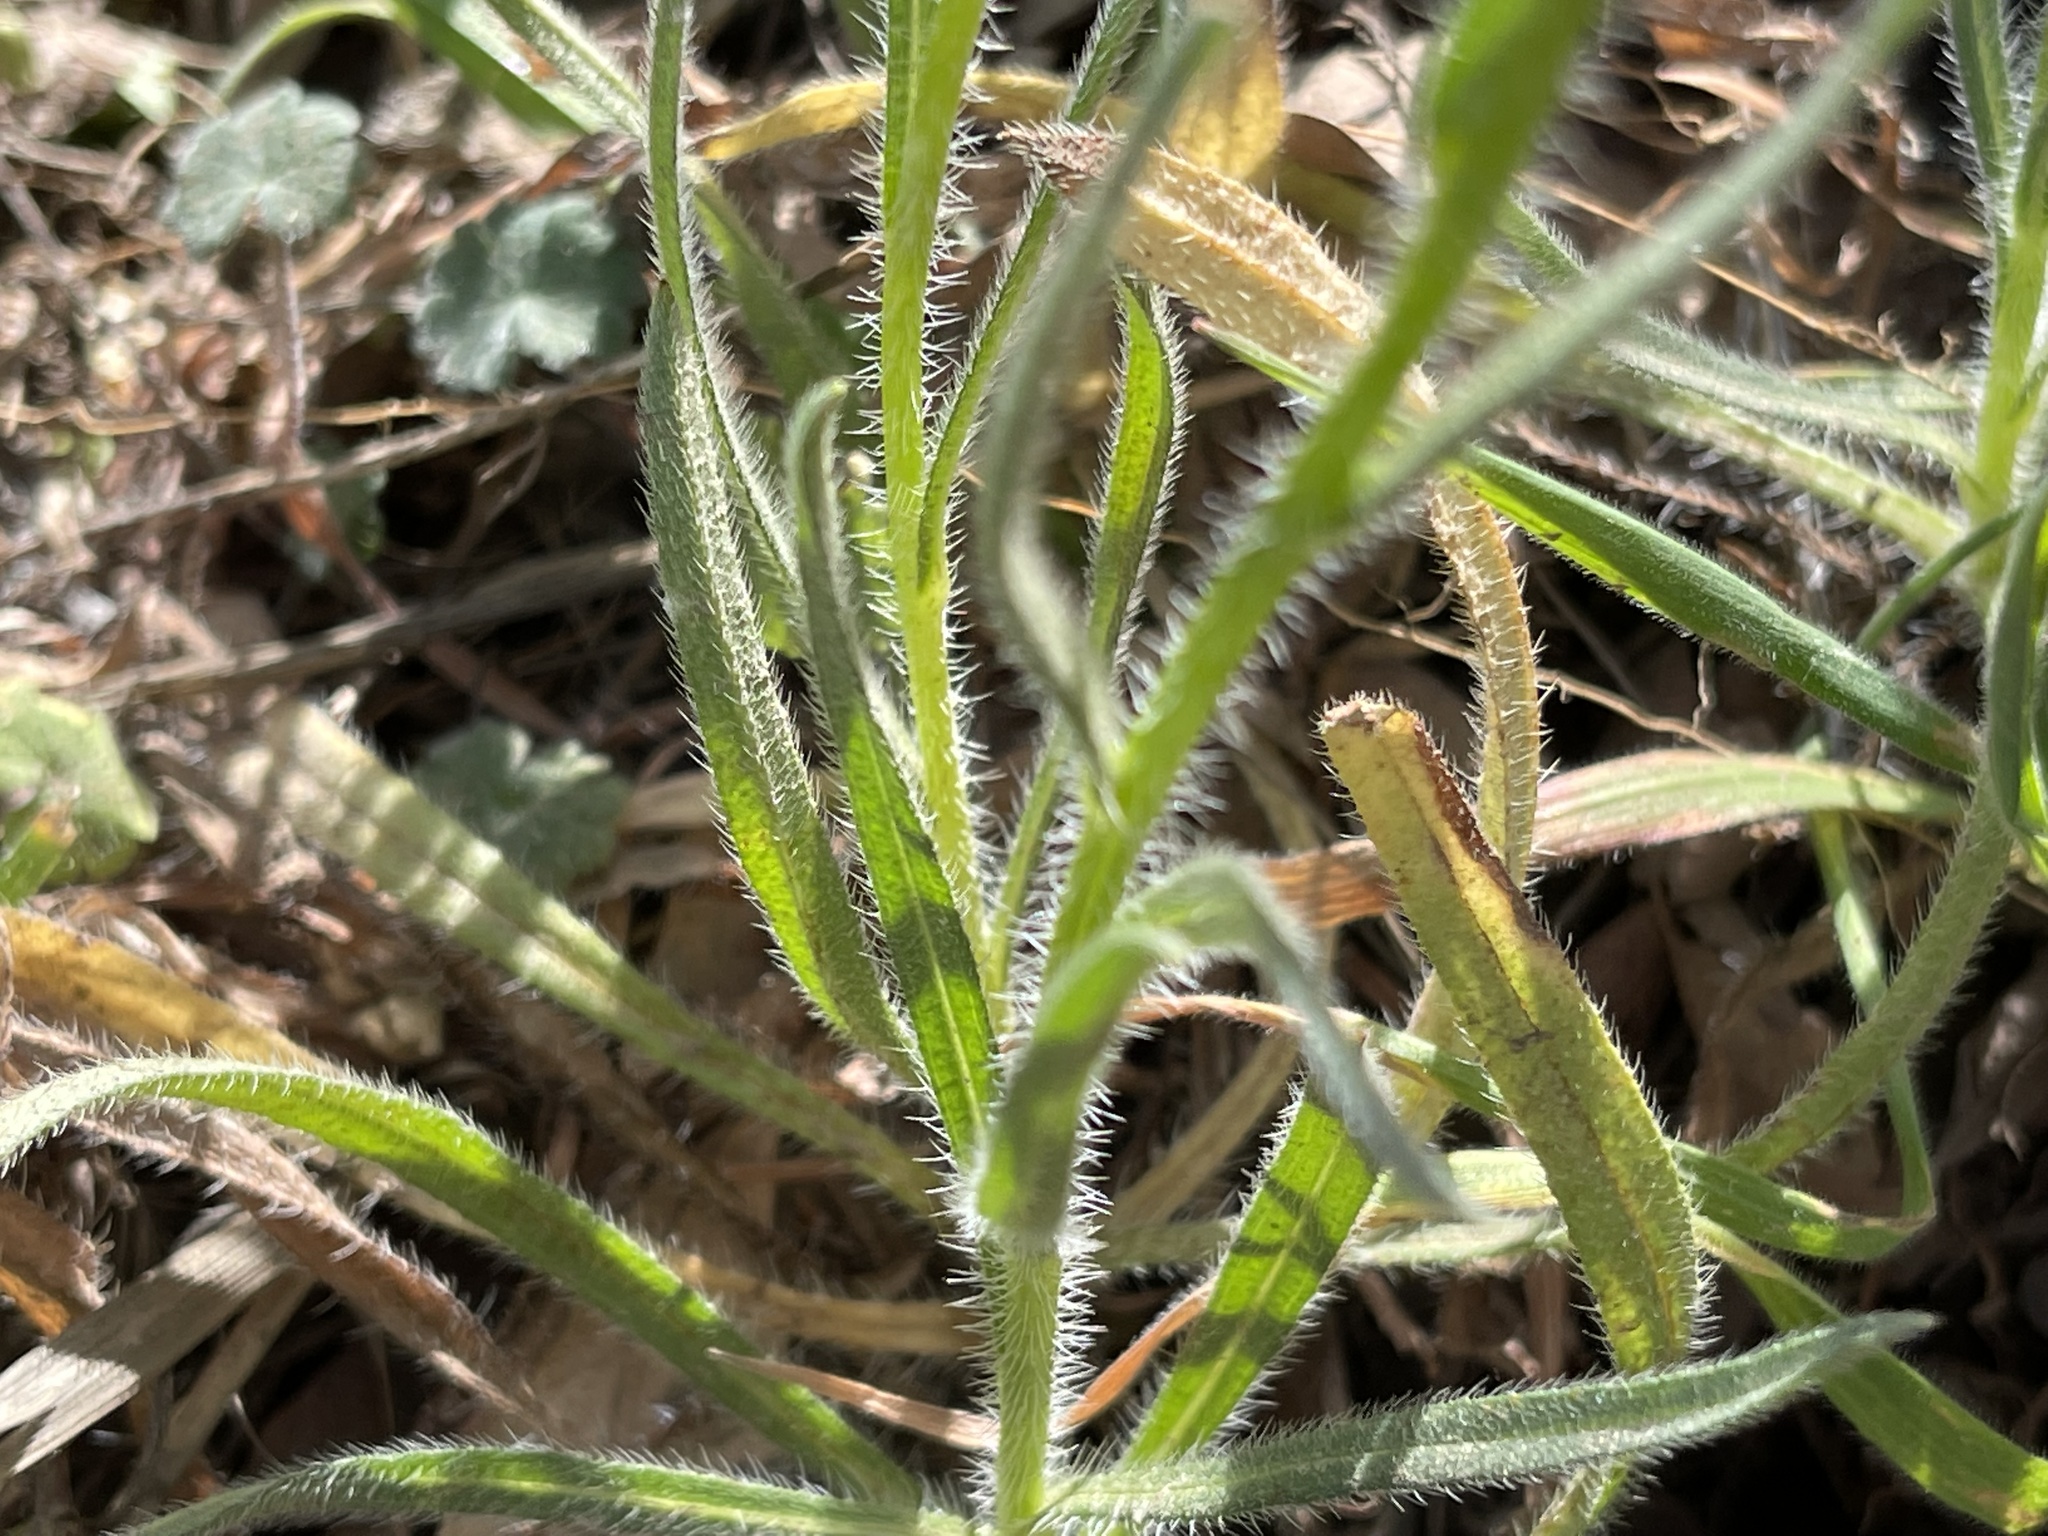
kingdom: Plantae
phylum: Tracheophyta
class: Magnoliopsida
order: Boraginales
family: Boraginaceae
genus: Amsinckia
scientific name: Amsinckia menziesii
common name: Menzies' fiddleneck
